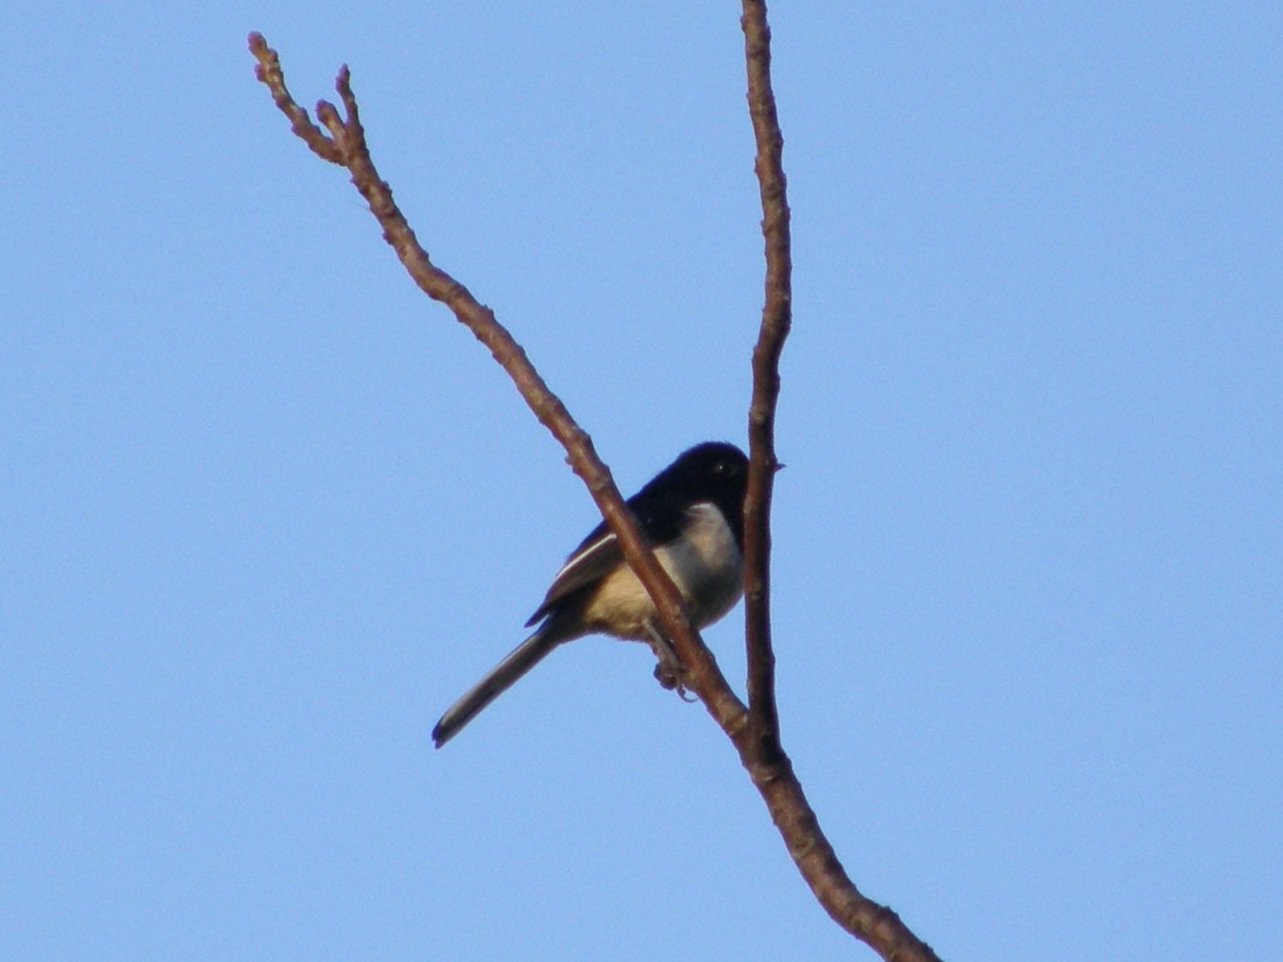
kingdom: Animalia
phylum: Chordata
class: Aves
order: Passeriformes
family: Muscicapidae
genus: Copsychus
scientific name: Copsychus albospecularis
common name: Madagascar magpie-robin
